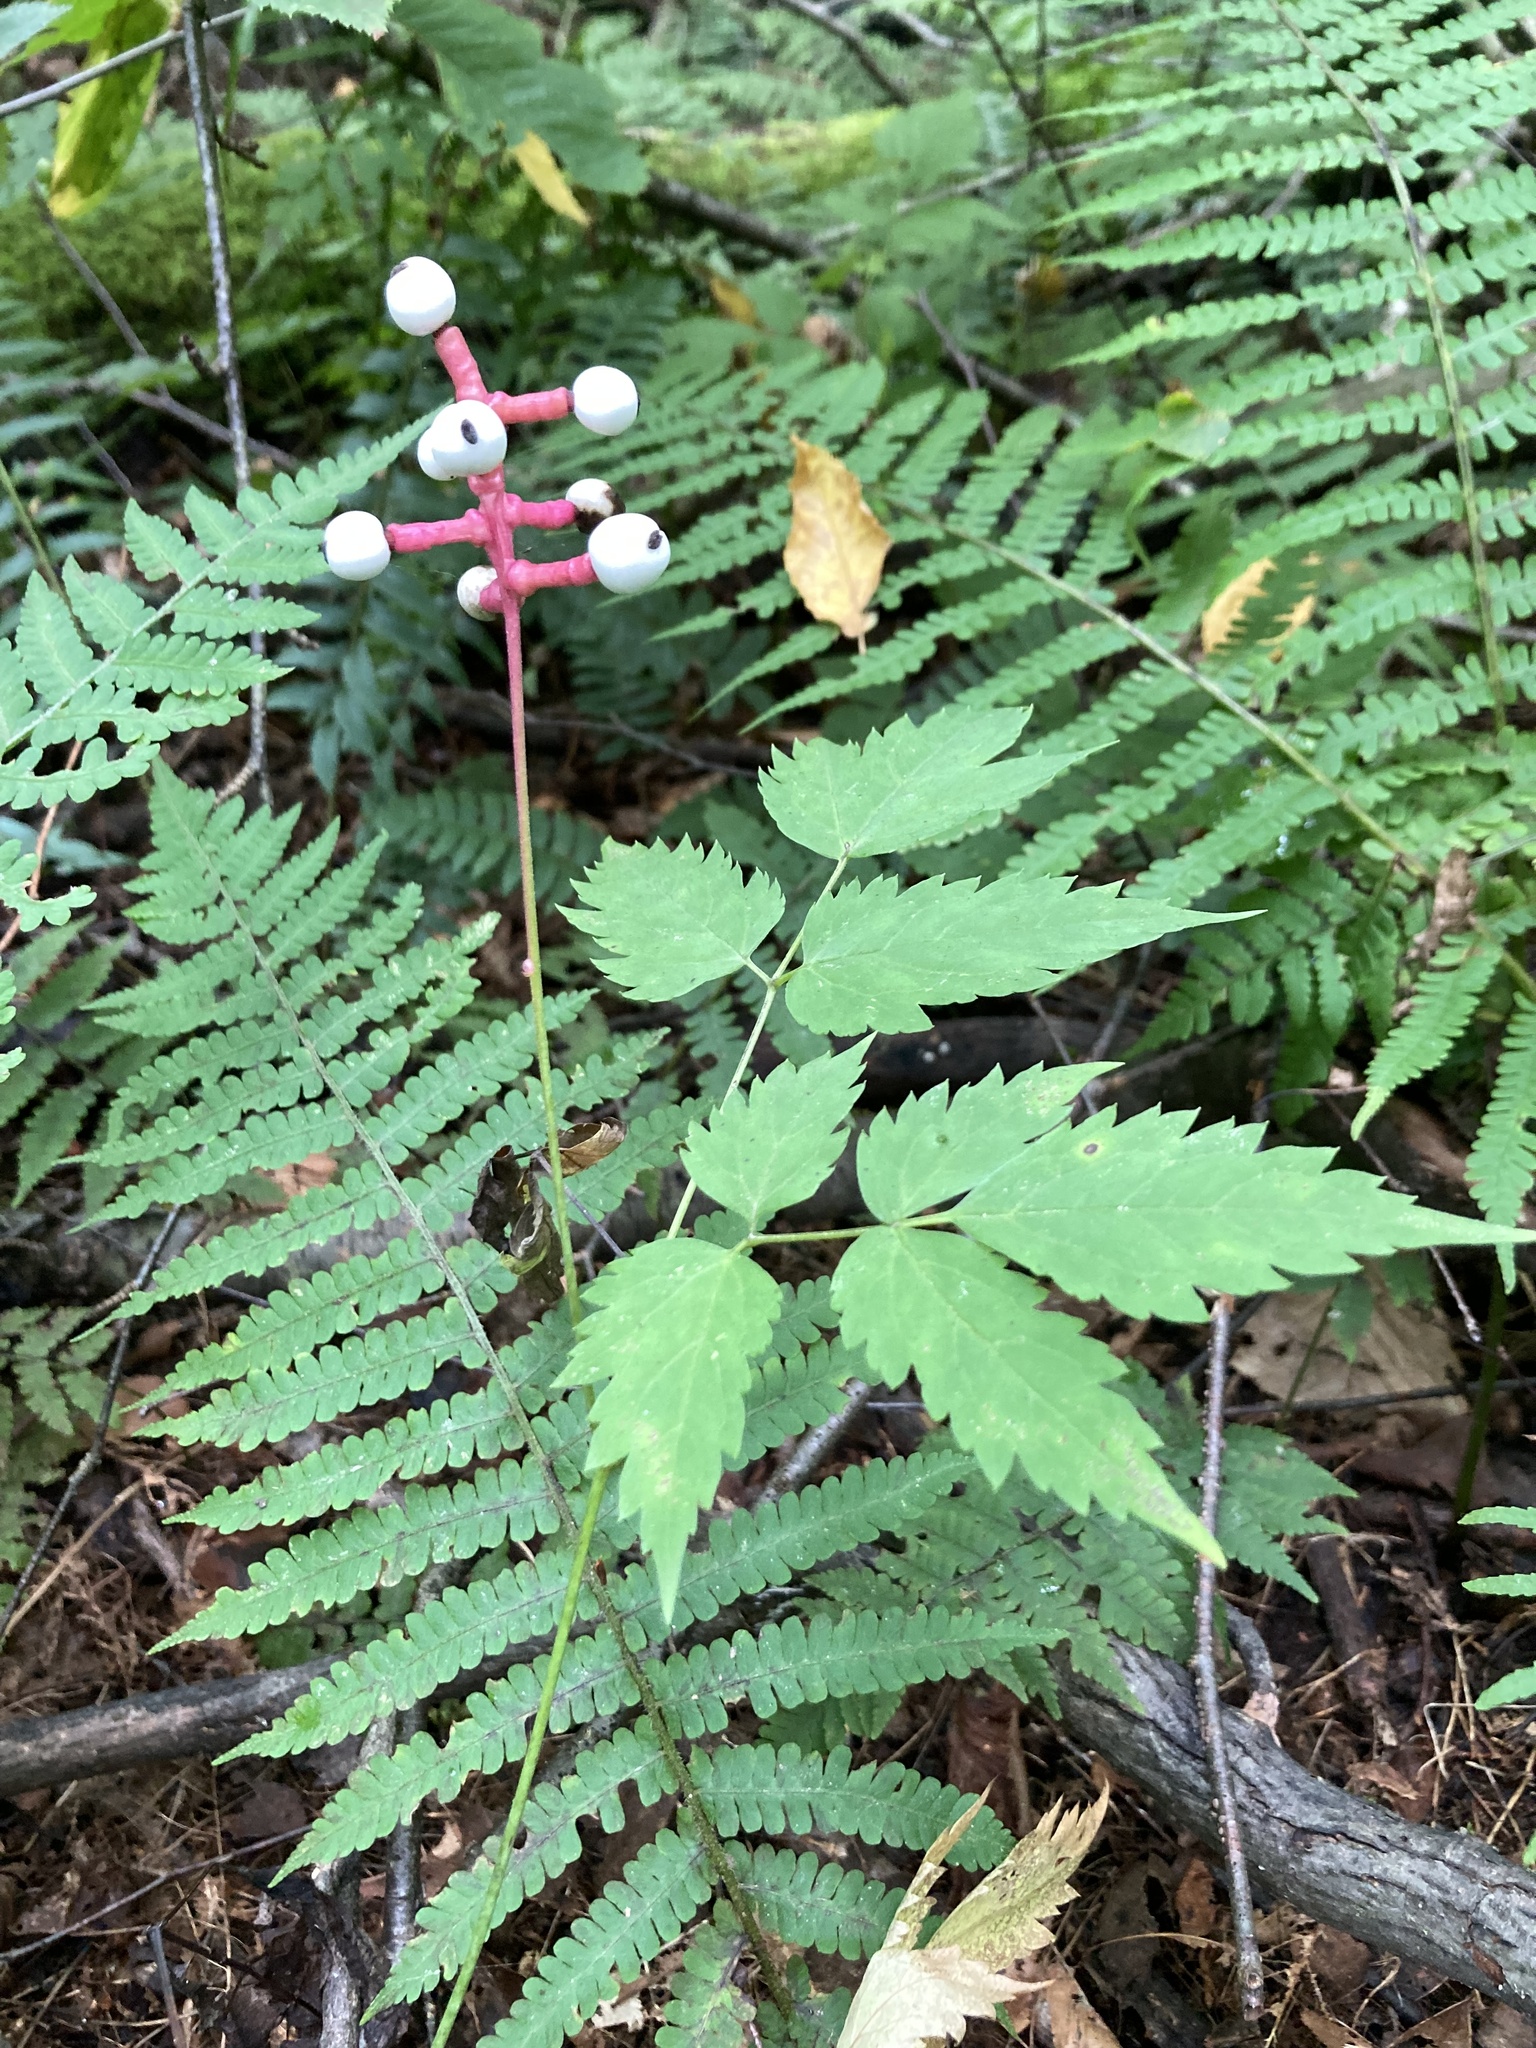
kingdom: Plantae
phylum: Tracheophyta
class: Magnoliopsida
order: Ranunculales
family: Ranunculaceae
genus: Actaea
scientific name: Actaea pachypoda
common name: Doll's-eyes
